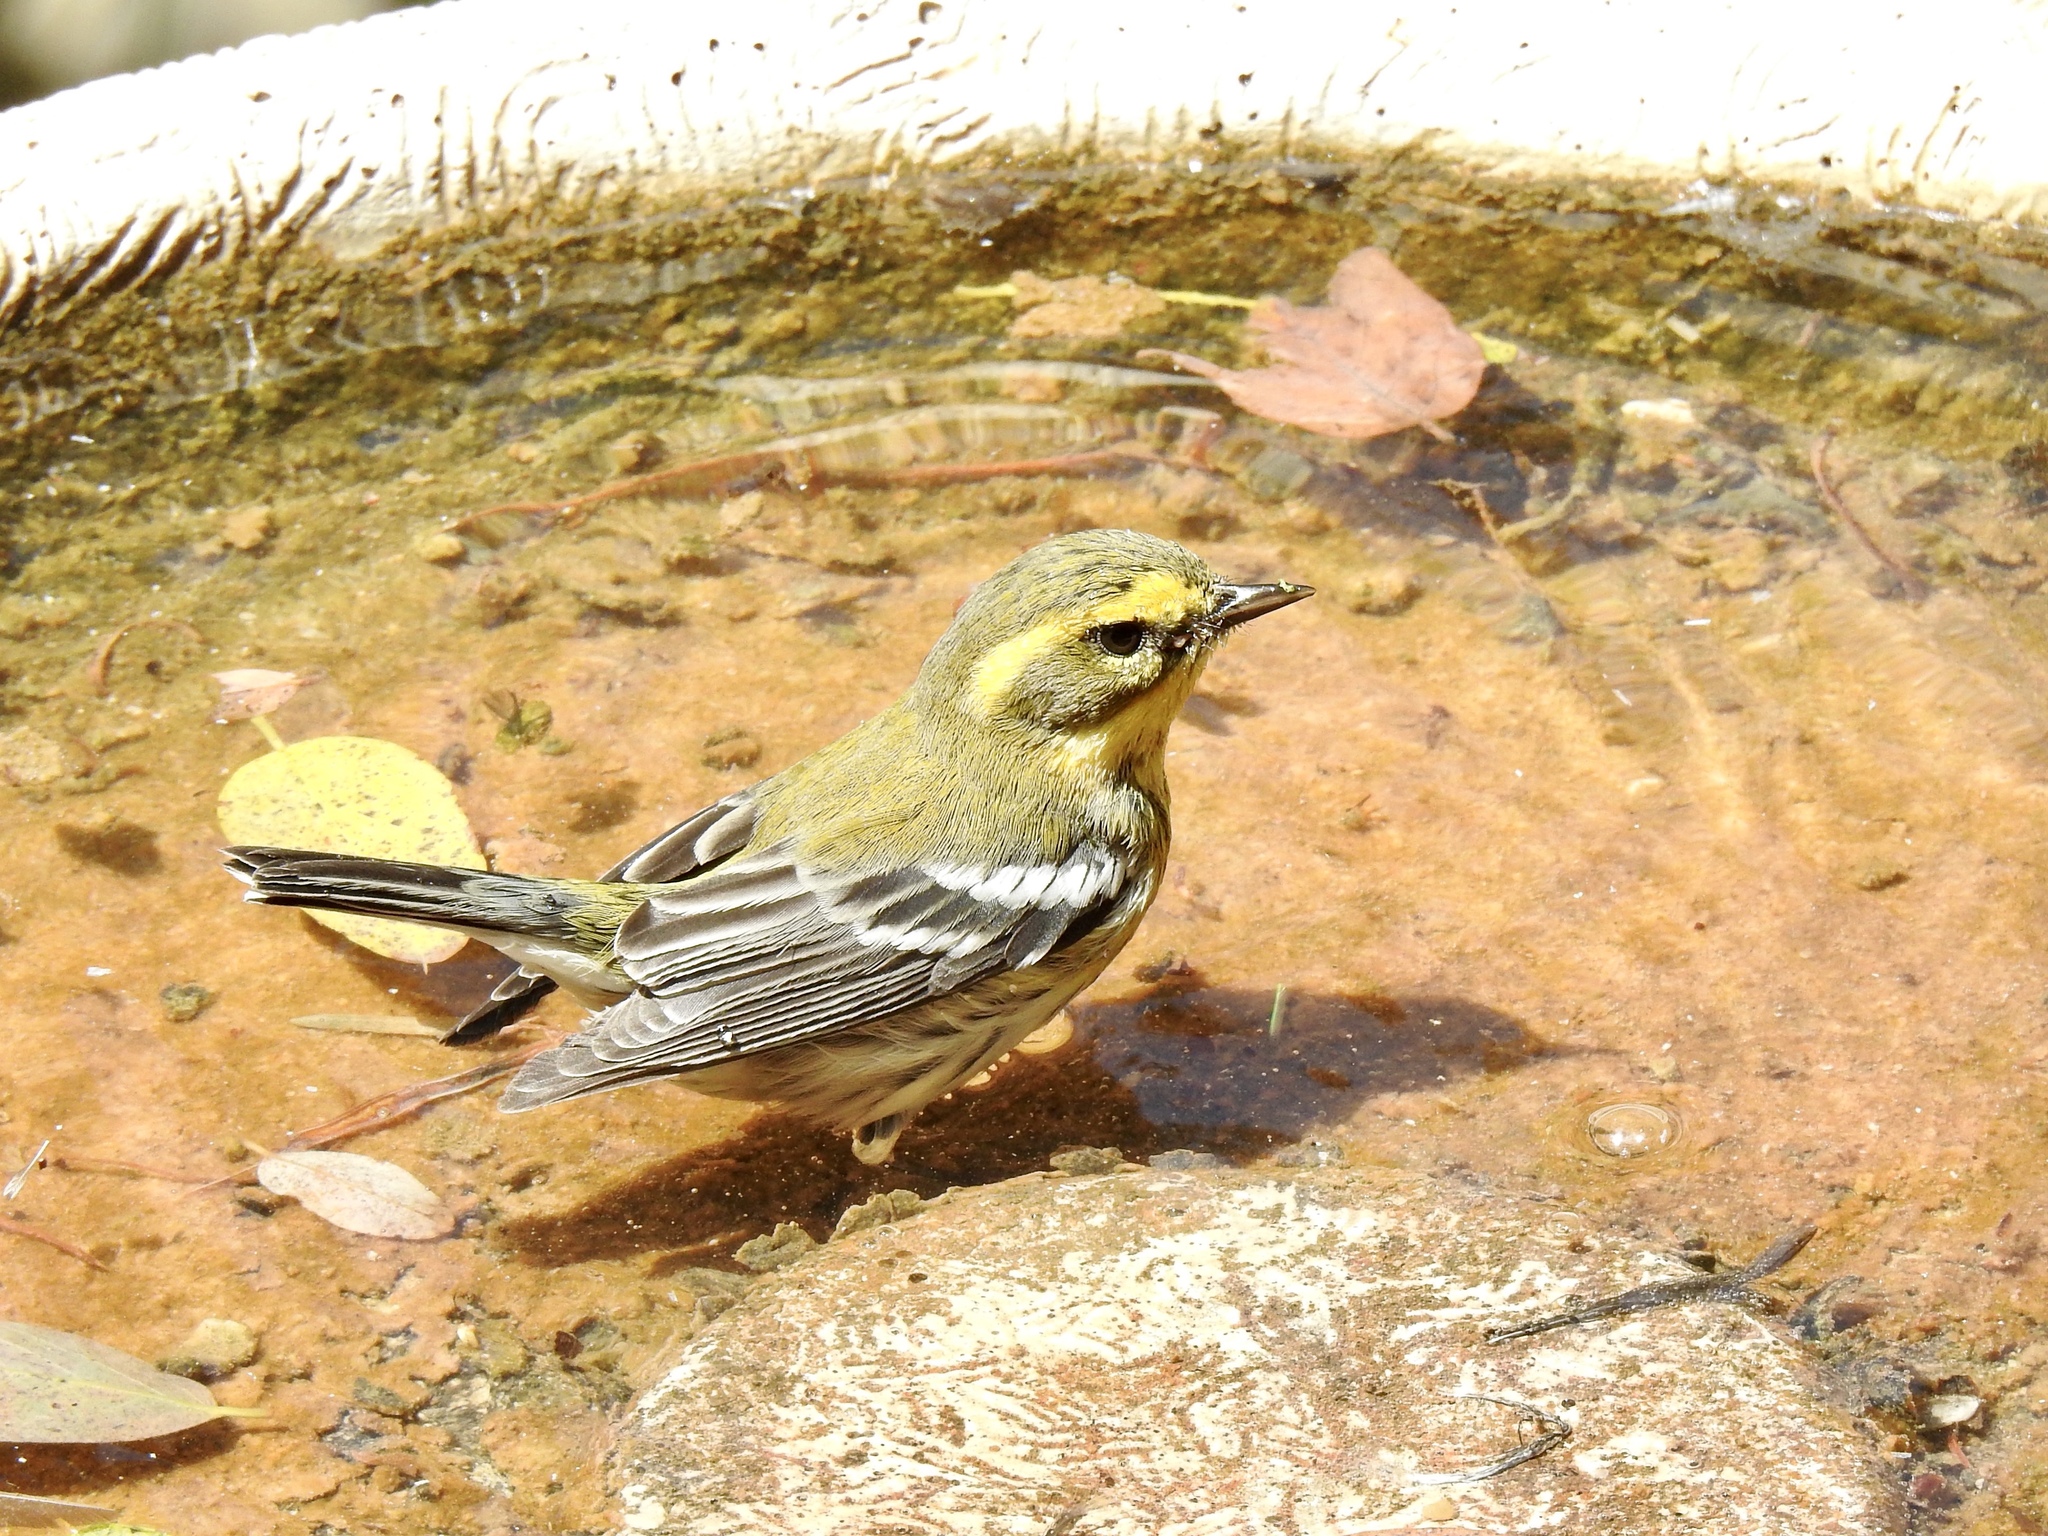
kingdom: Animalia
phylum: Chordata
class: Aves
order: Passeriformes
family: Parulidae
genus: Setophaga
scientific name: Setophaga townsendi
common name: Townsend's warbler
